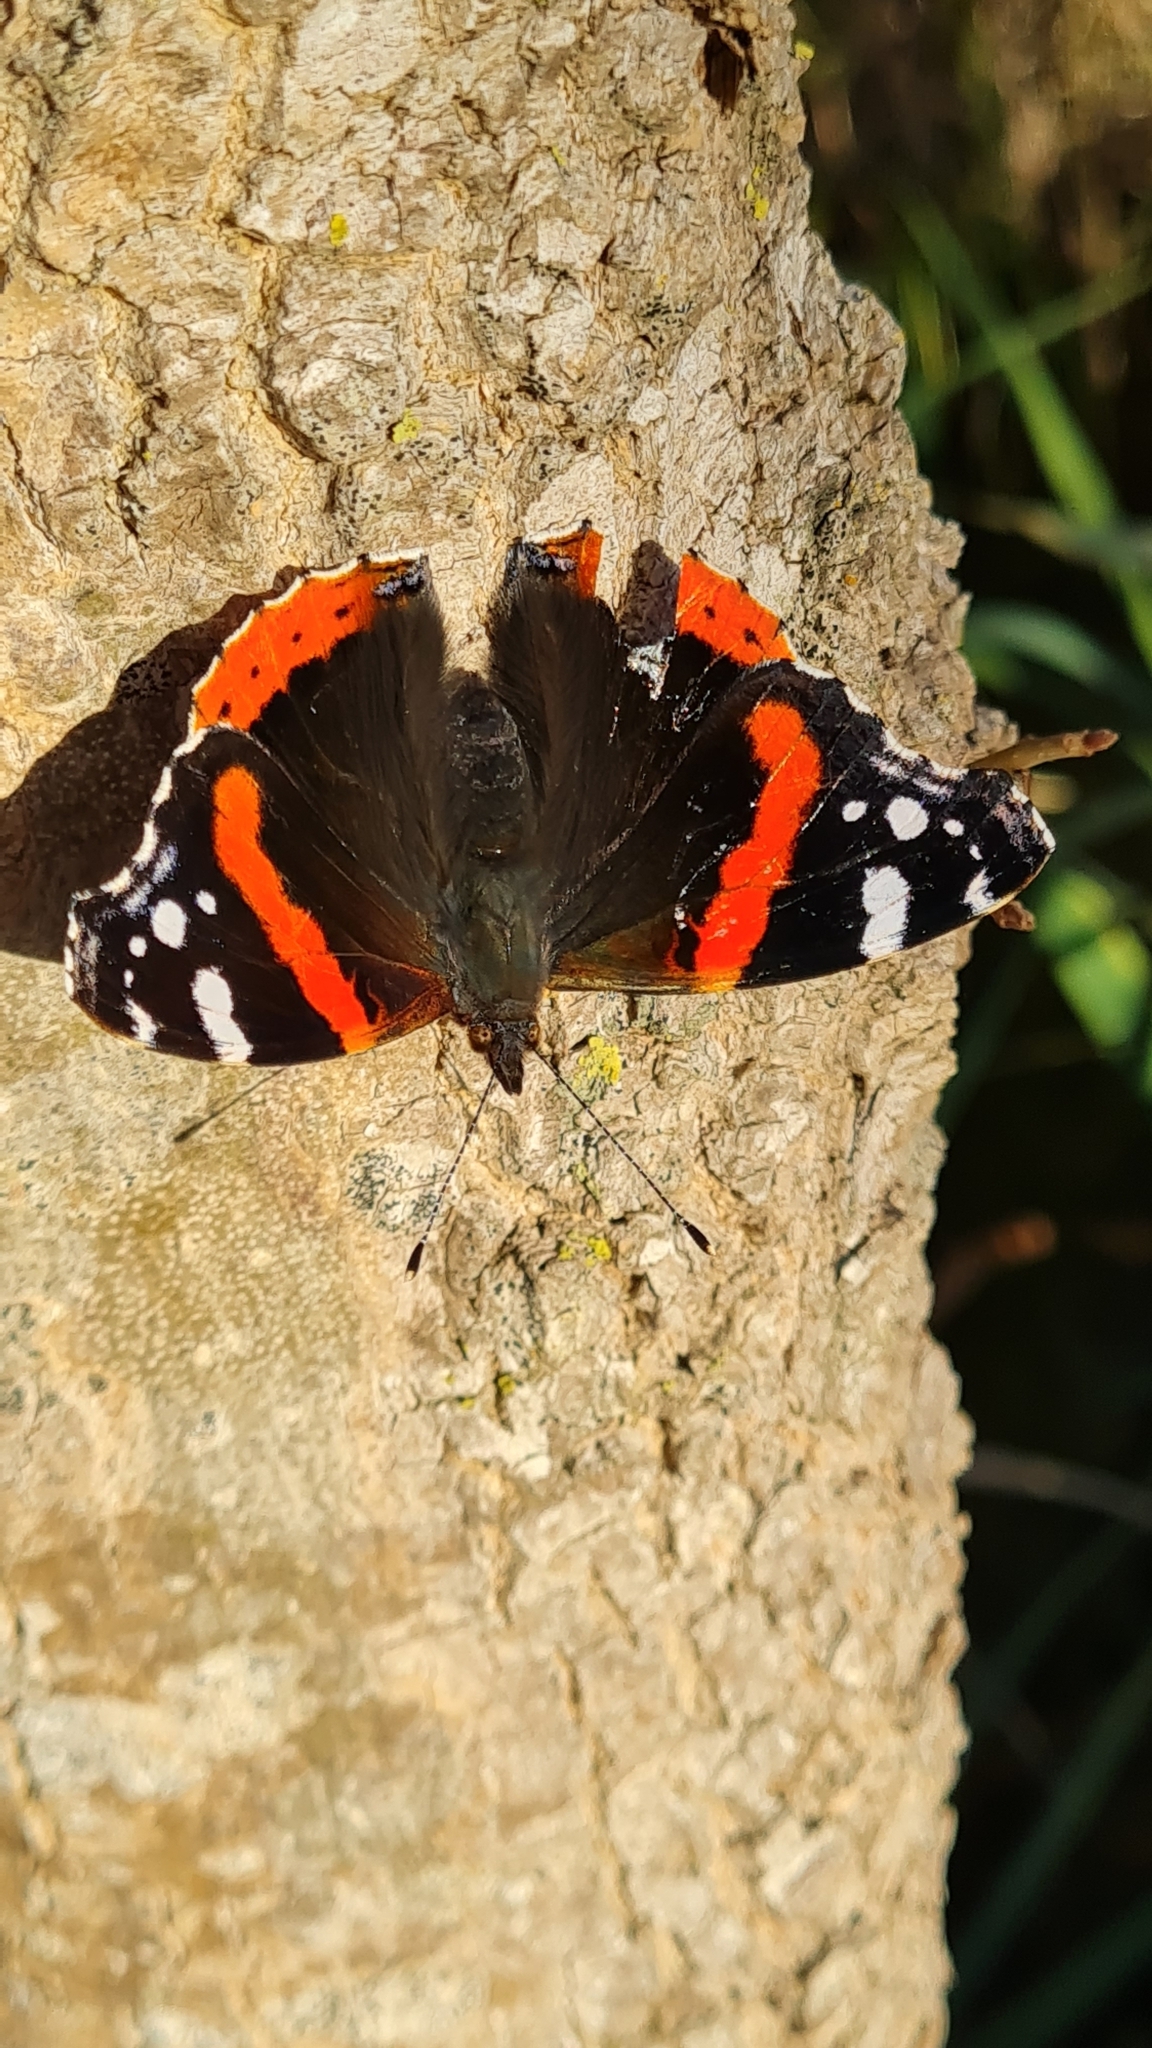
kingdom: Animalia
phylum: Arthropoda
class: Insecta
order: Lepidoptera
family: Nymphalidae
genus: Vanessa
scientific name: Vanessa atalanta
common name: Red admiral
